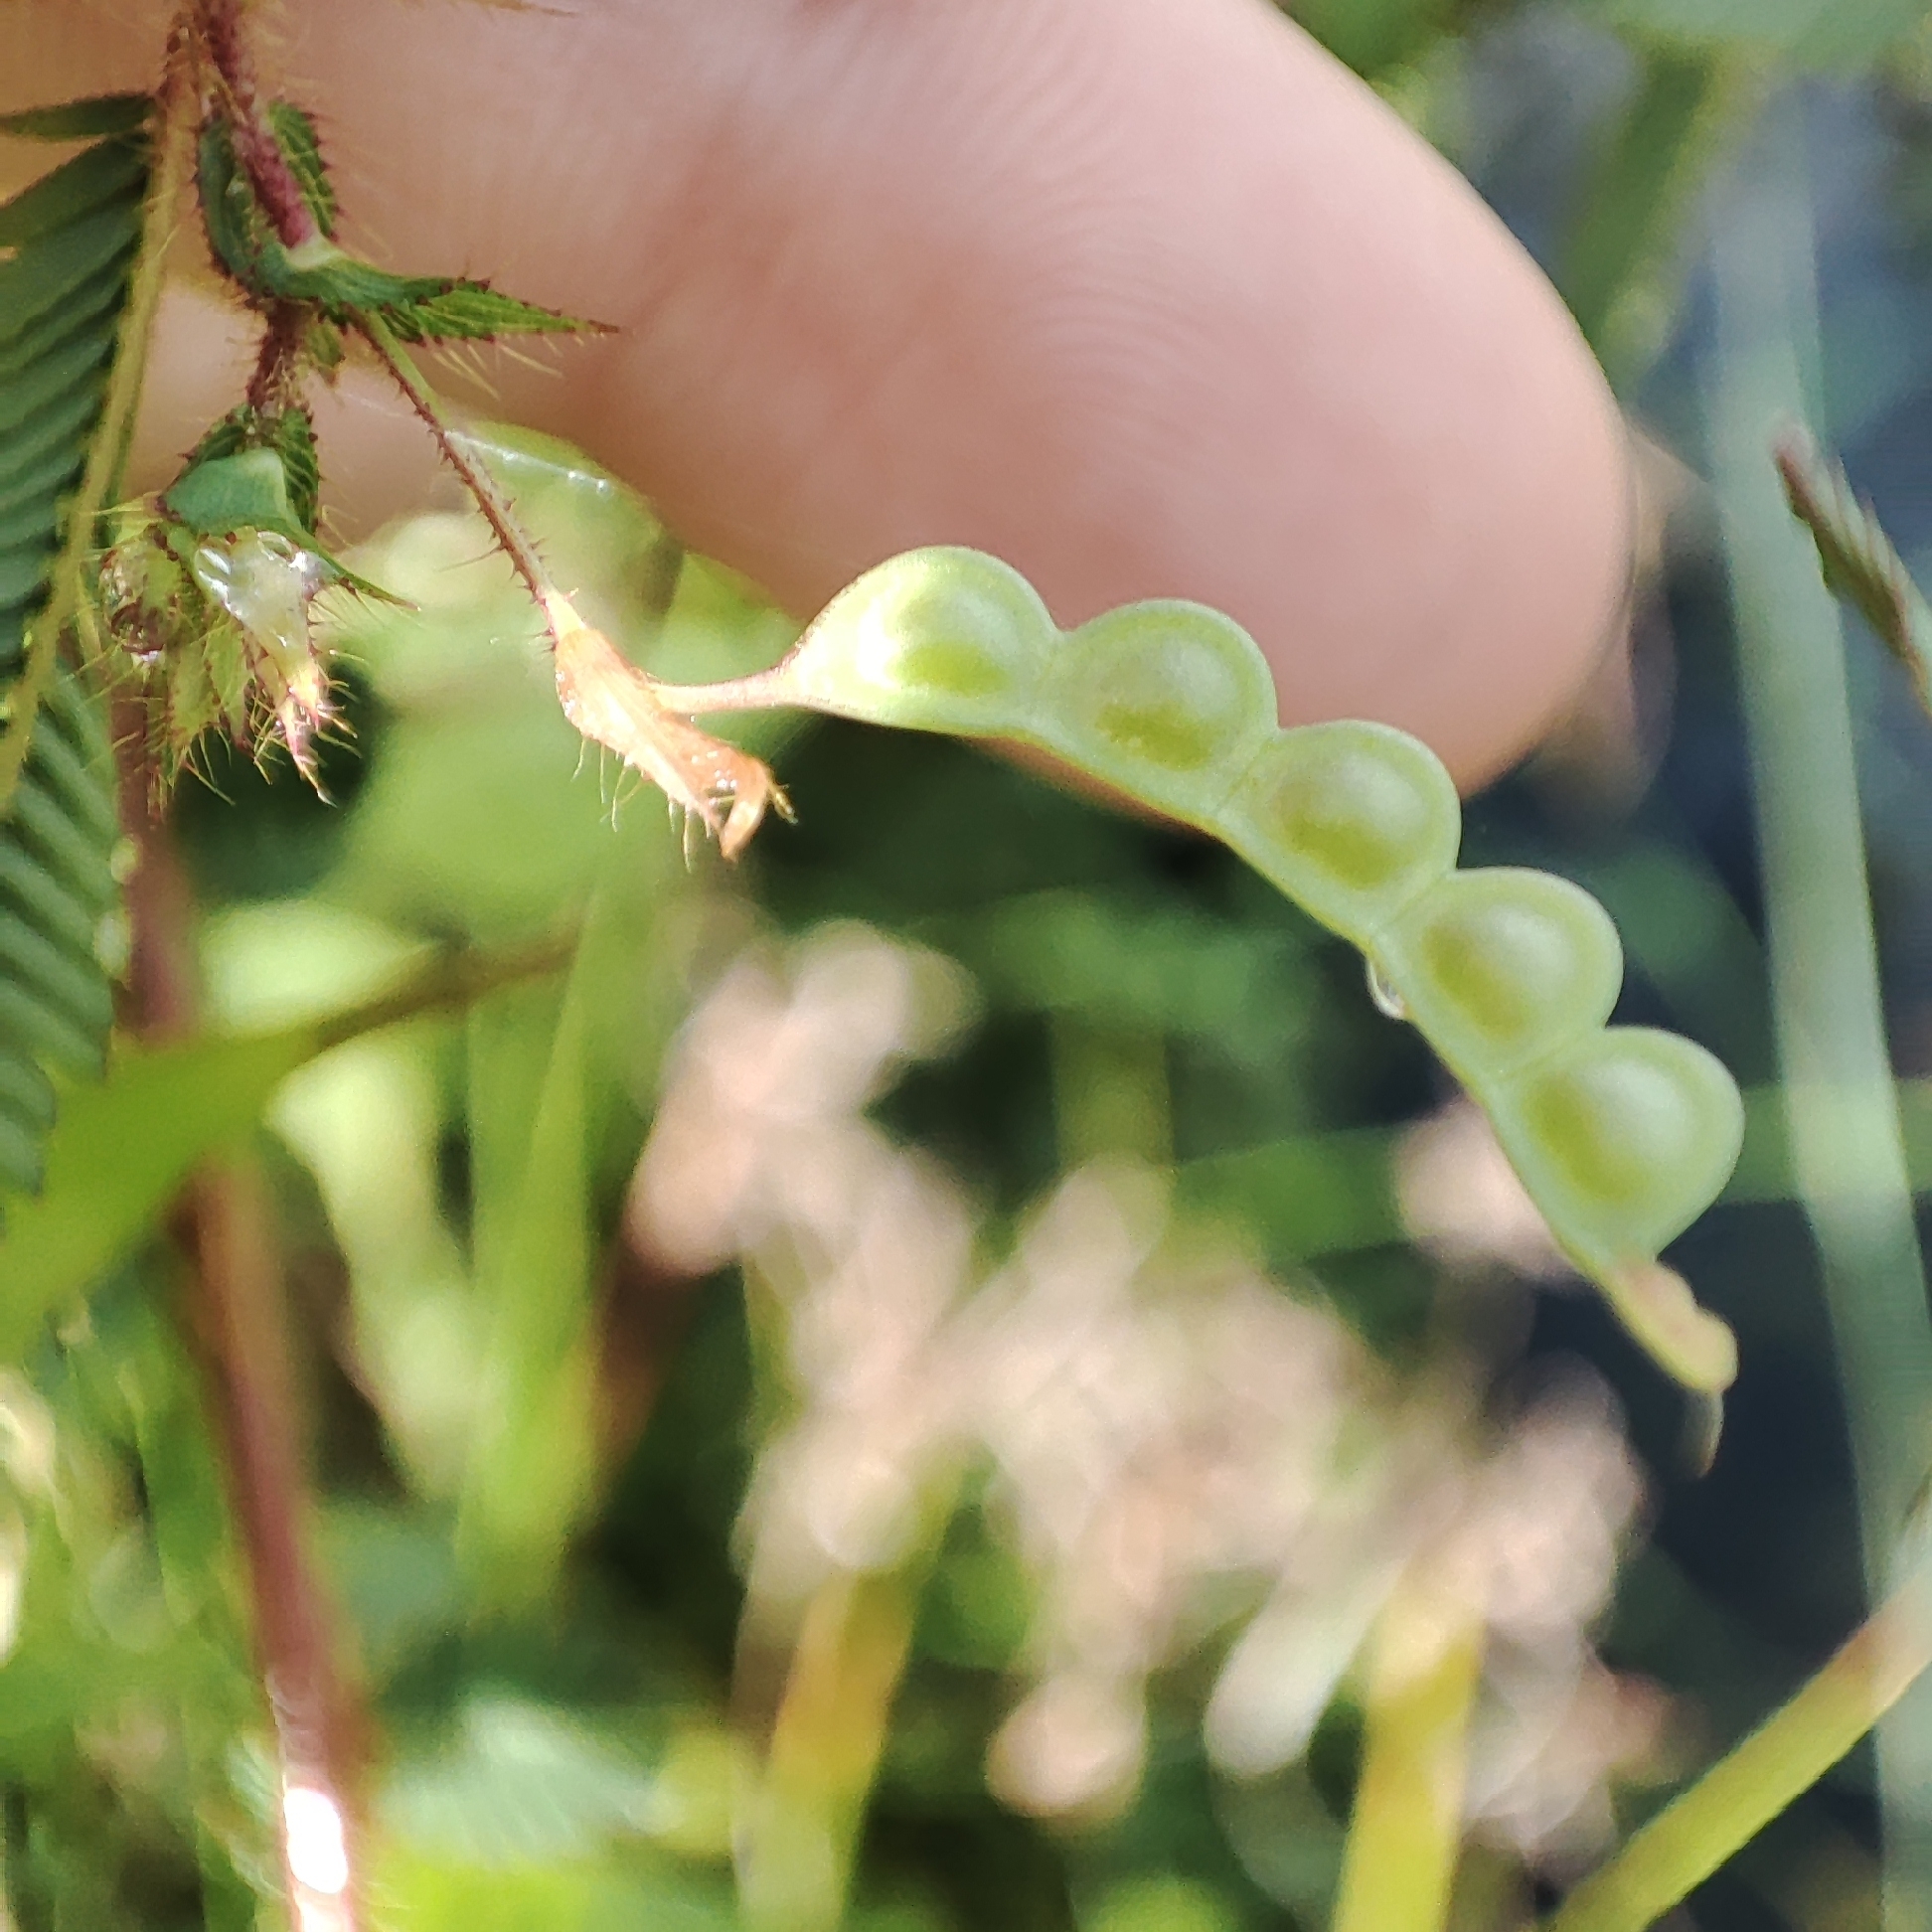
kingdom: Plantae
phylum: Tracheophyta
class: Magnoliopsida
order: Fabales
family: Fabaceae
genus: Aeschynomene
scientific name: Aeschynomene americana
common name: Joint-vetch
